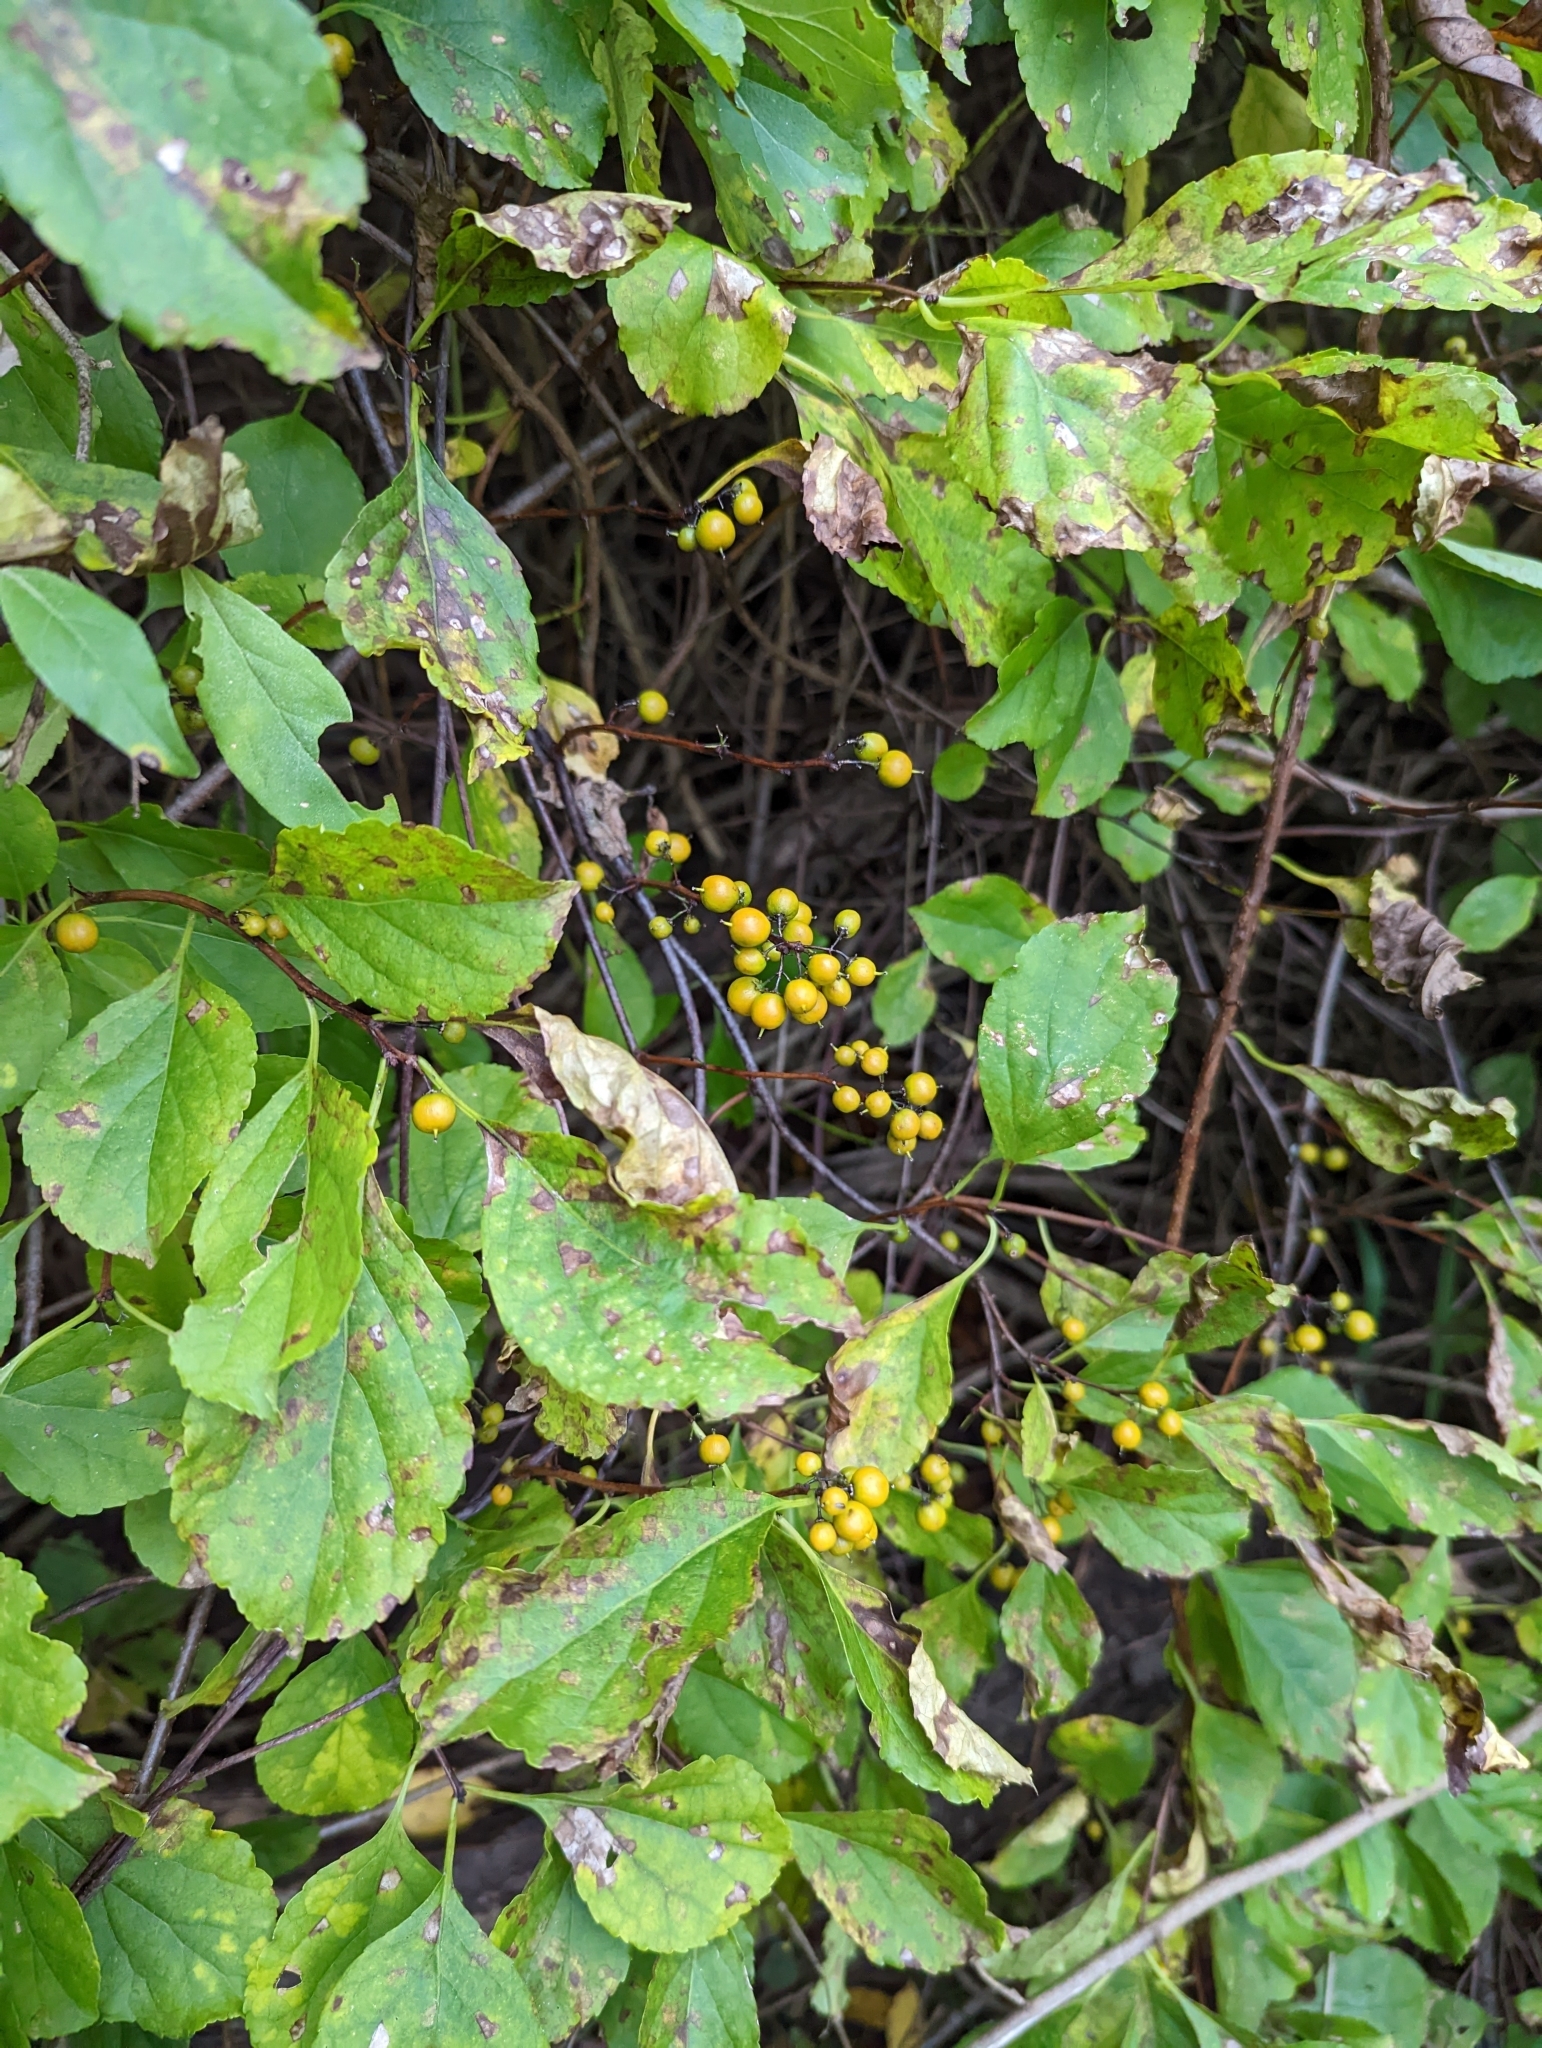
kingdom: Plantae
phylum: Tracheophyta
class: Magnoliopsida
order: Celastrales
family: Celastraceae
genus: Celastrus
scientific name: Celastrus orbiculatus
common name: Oriental bittersweet
